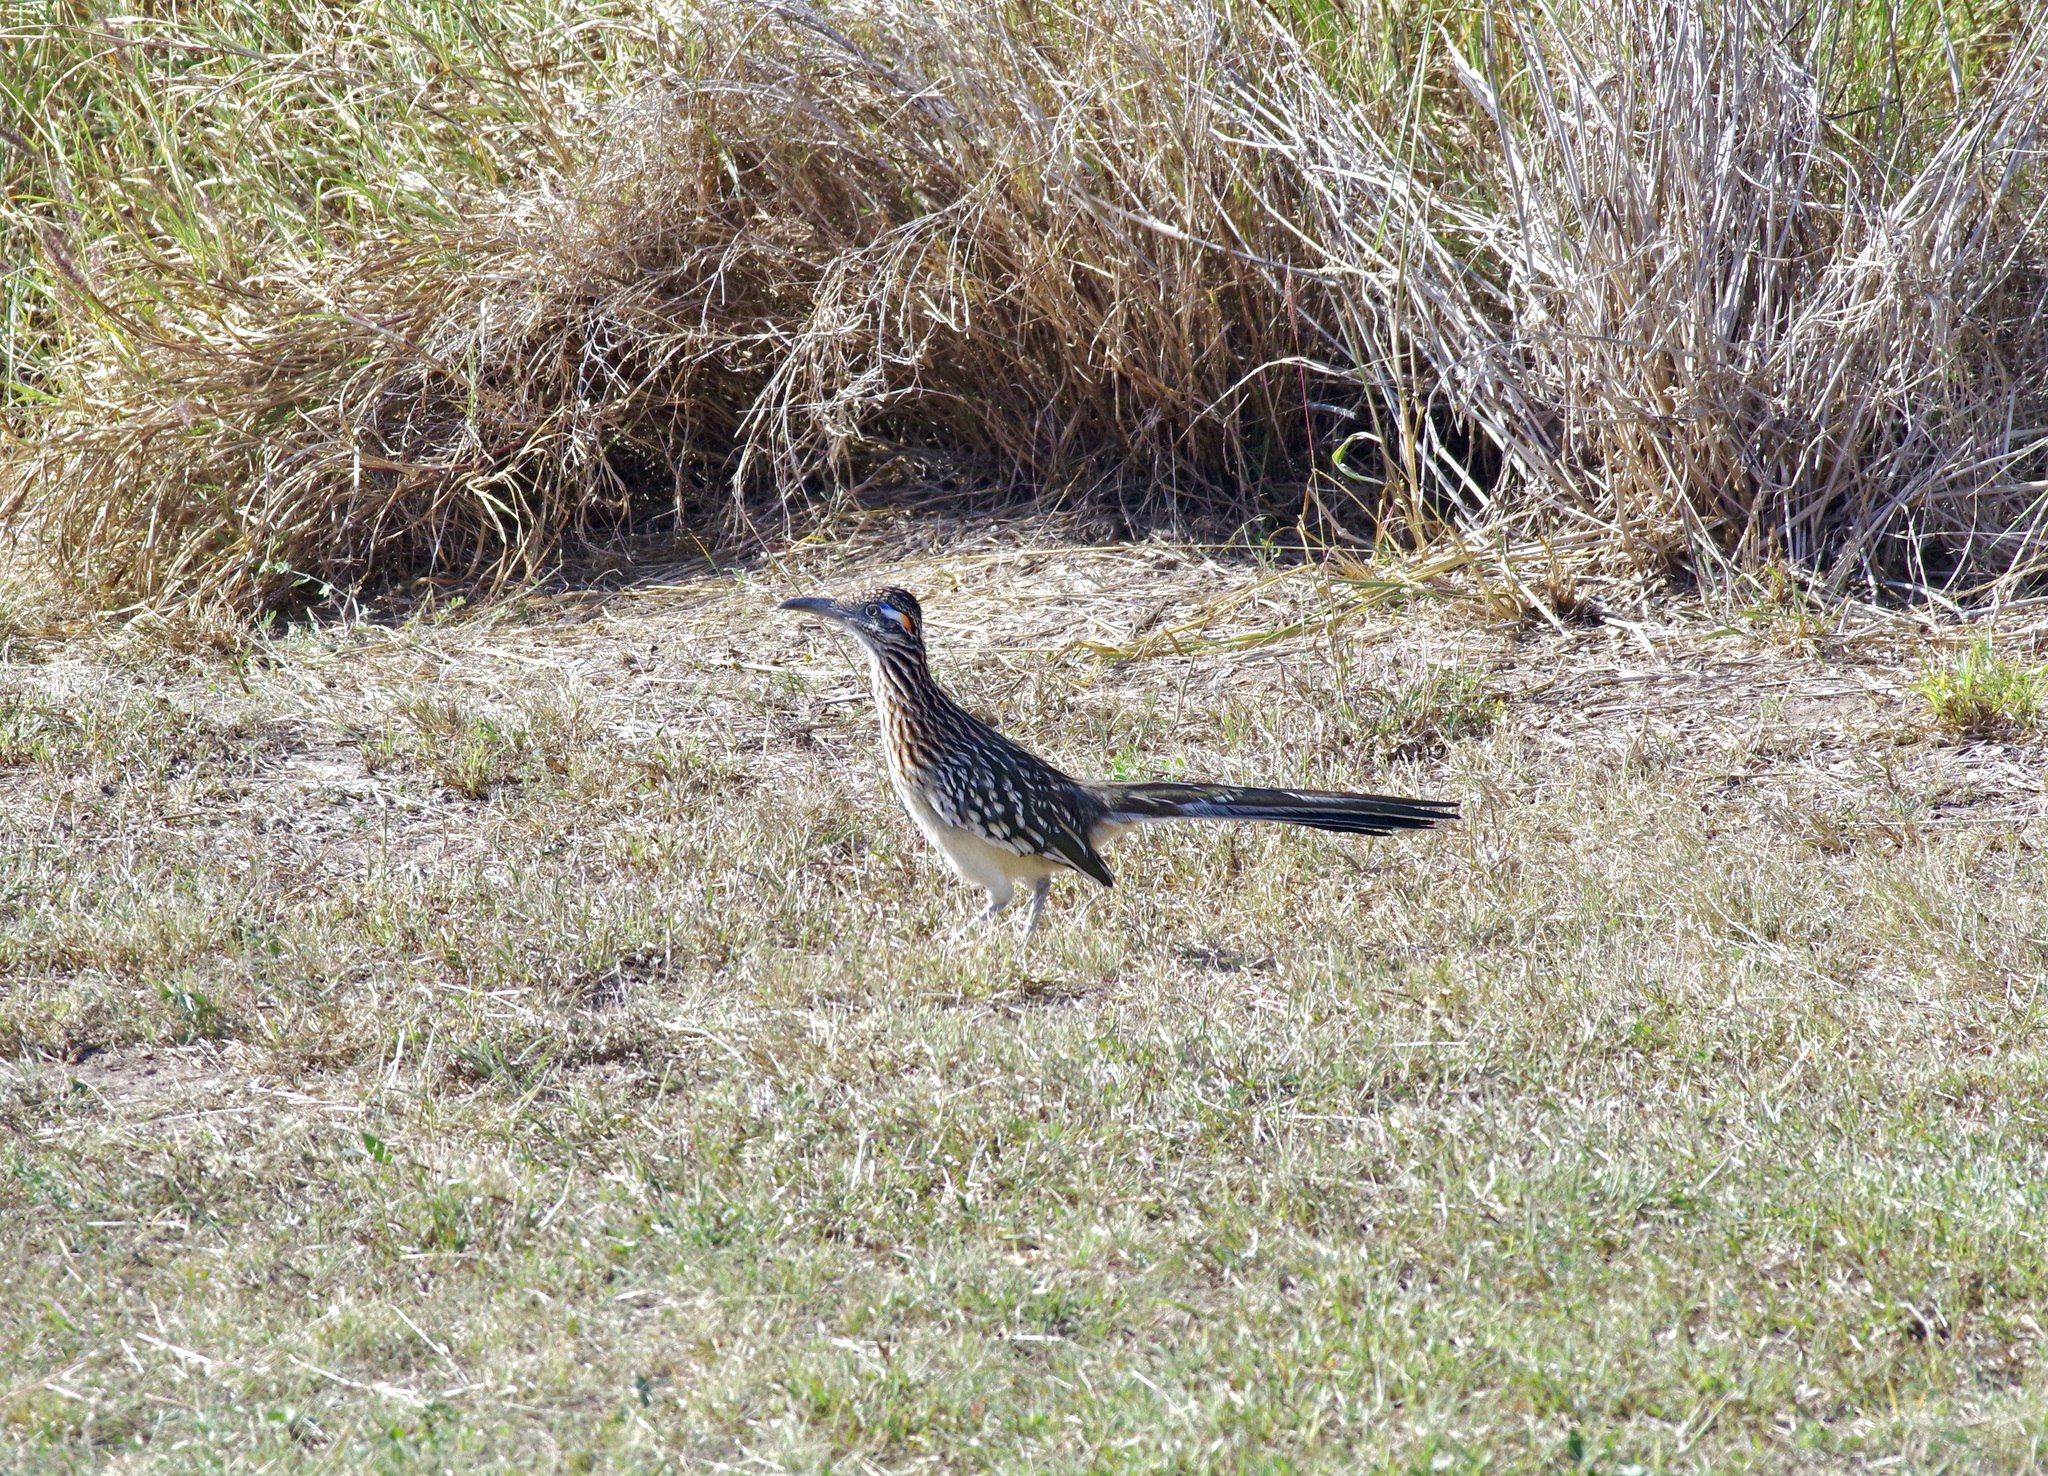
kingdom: Animalia
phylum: Chordata
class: Aves
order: Cuculiformes
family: Cuculidae
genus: Geococcyx
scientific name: Geococcyx californianus
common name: Greater roadrunner
